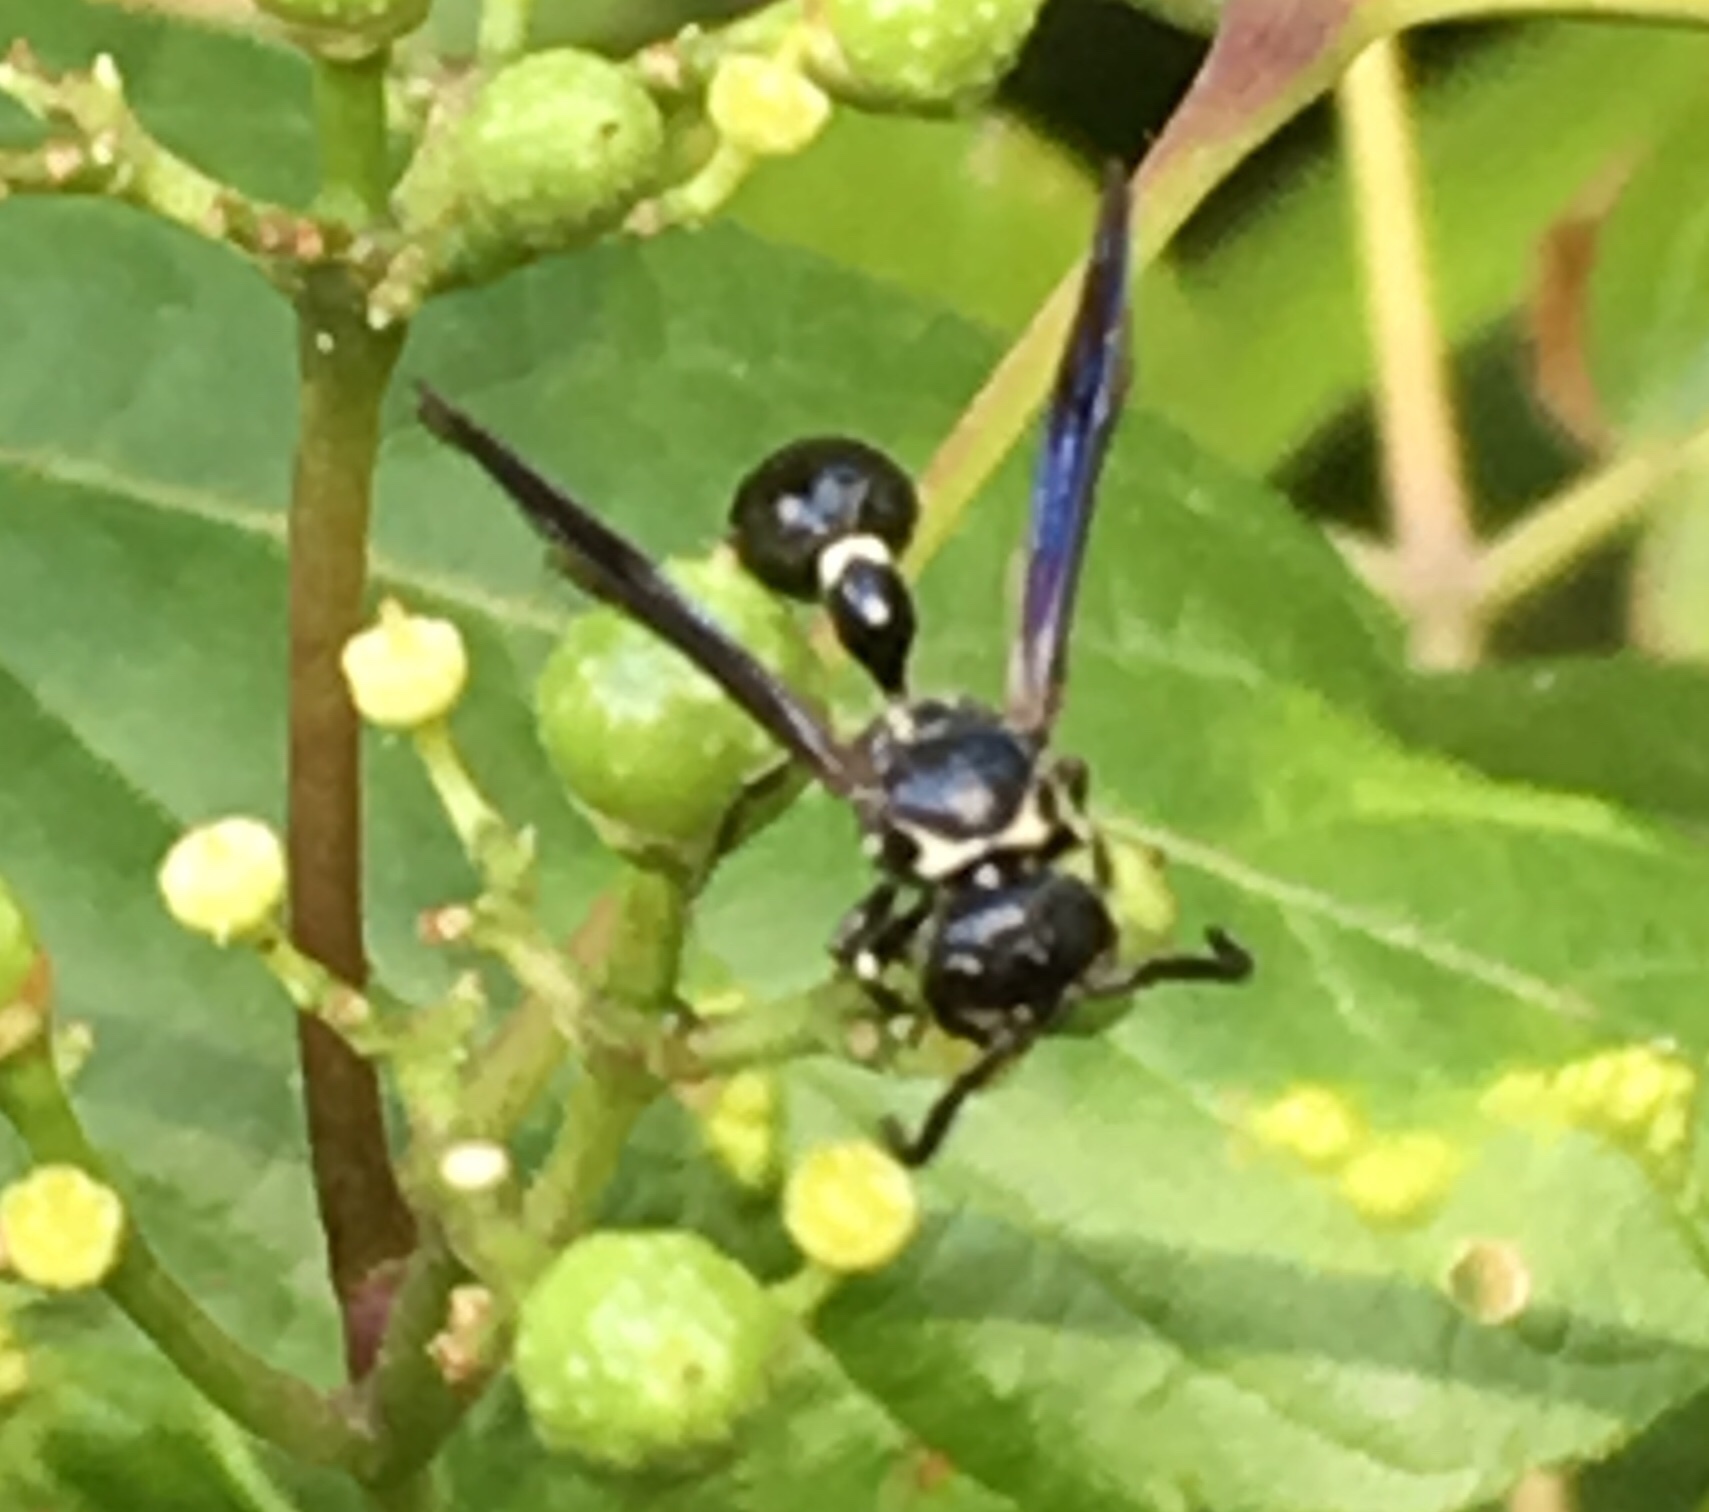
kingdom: Animalia
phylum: Arthropoda
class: Insecta
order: Hymenoptera
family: Eumenidae
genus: Zethus
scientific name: Zethus spinipes
